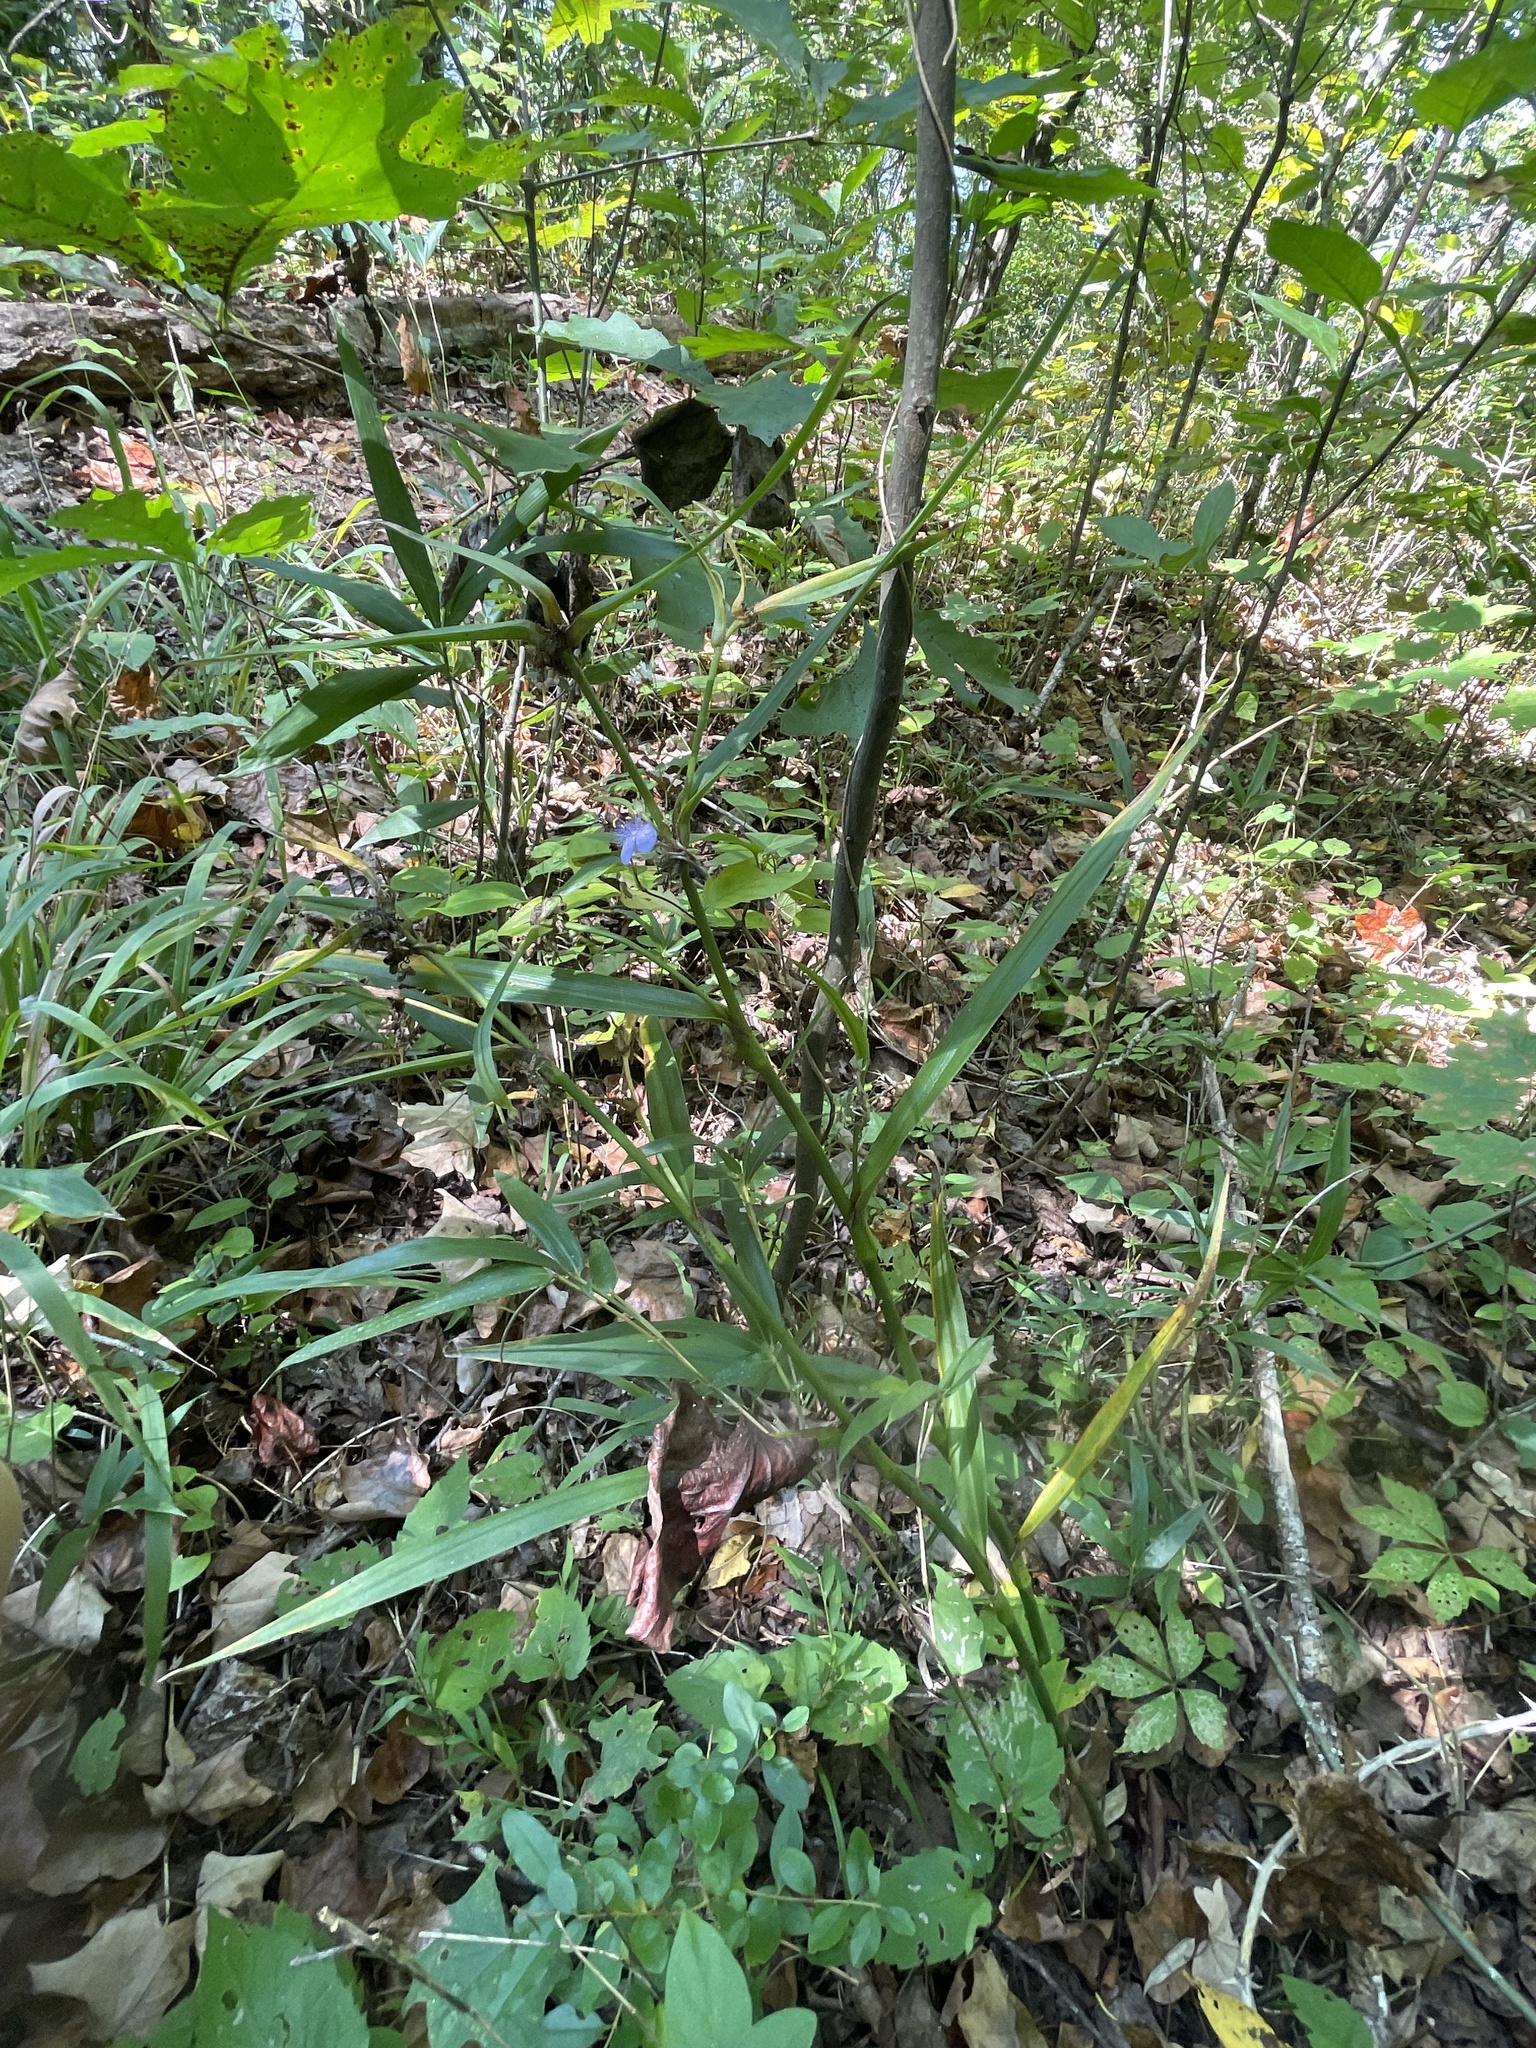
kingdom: Plantae
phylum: Tracheophyta
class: Liliopsida
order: Commelinales
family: Commelinaceae
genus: Tradescantia
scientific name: Tradescantia subaspera
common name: Wide-leaf spiderwort
